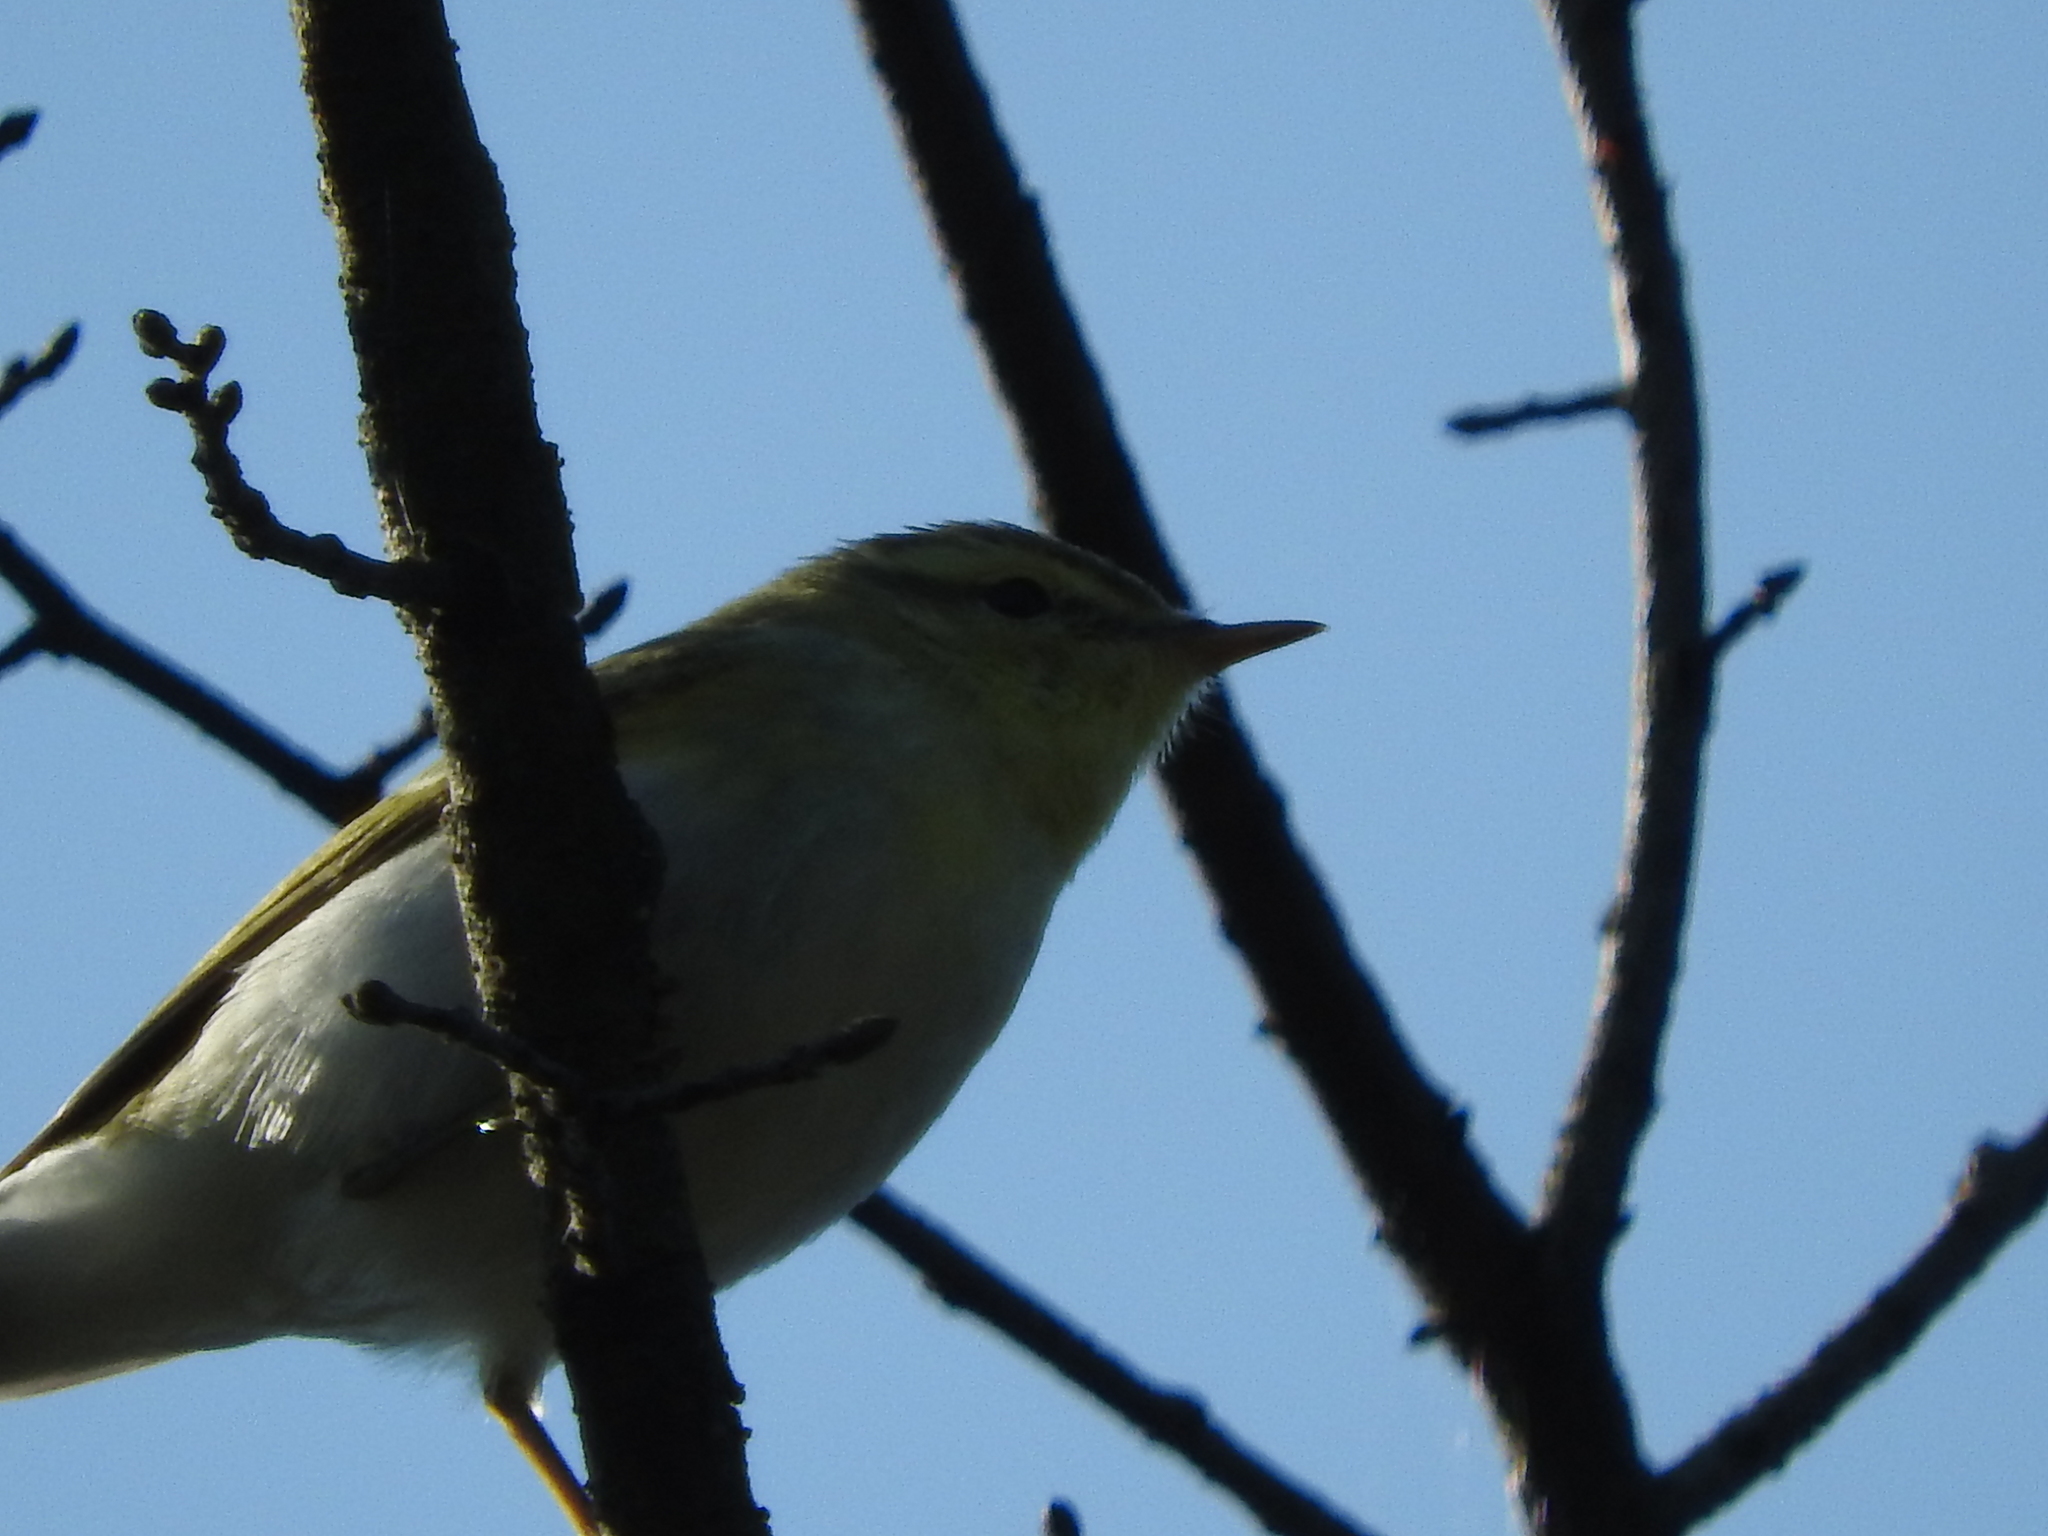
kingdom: Animalia
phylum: Chordata
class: Aves
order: Passeriformes
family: Phylloscopidae
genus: Phylloscopus
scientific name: Phylloscopus sibillatrix
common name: Wood warbler
